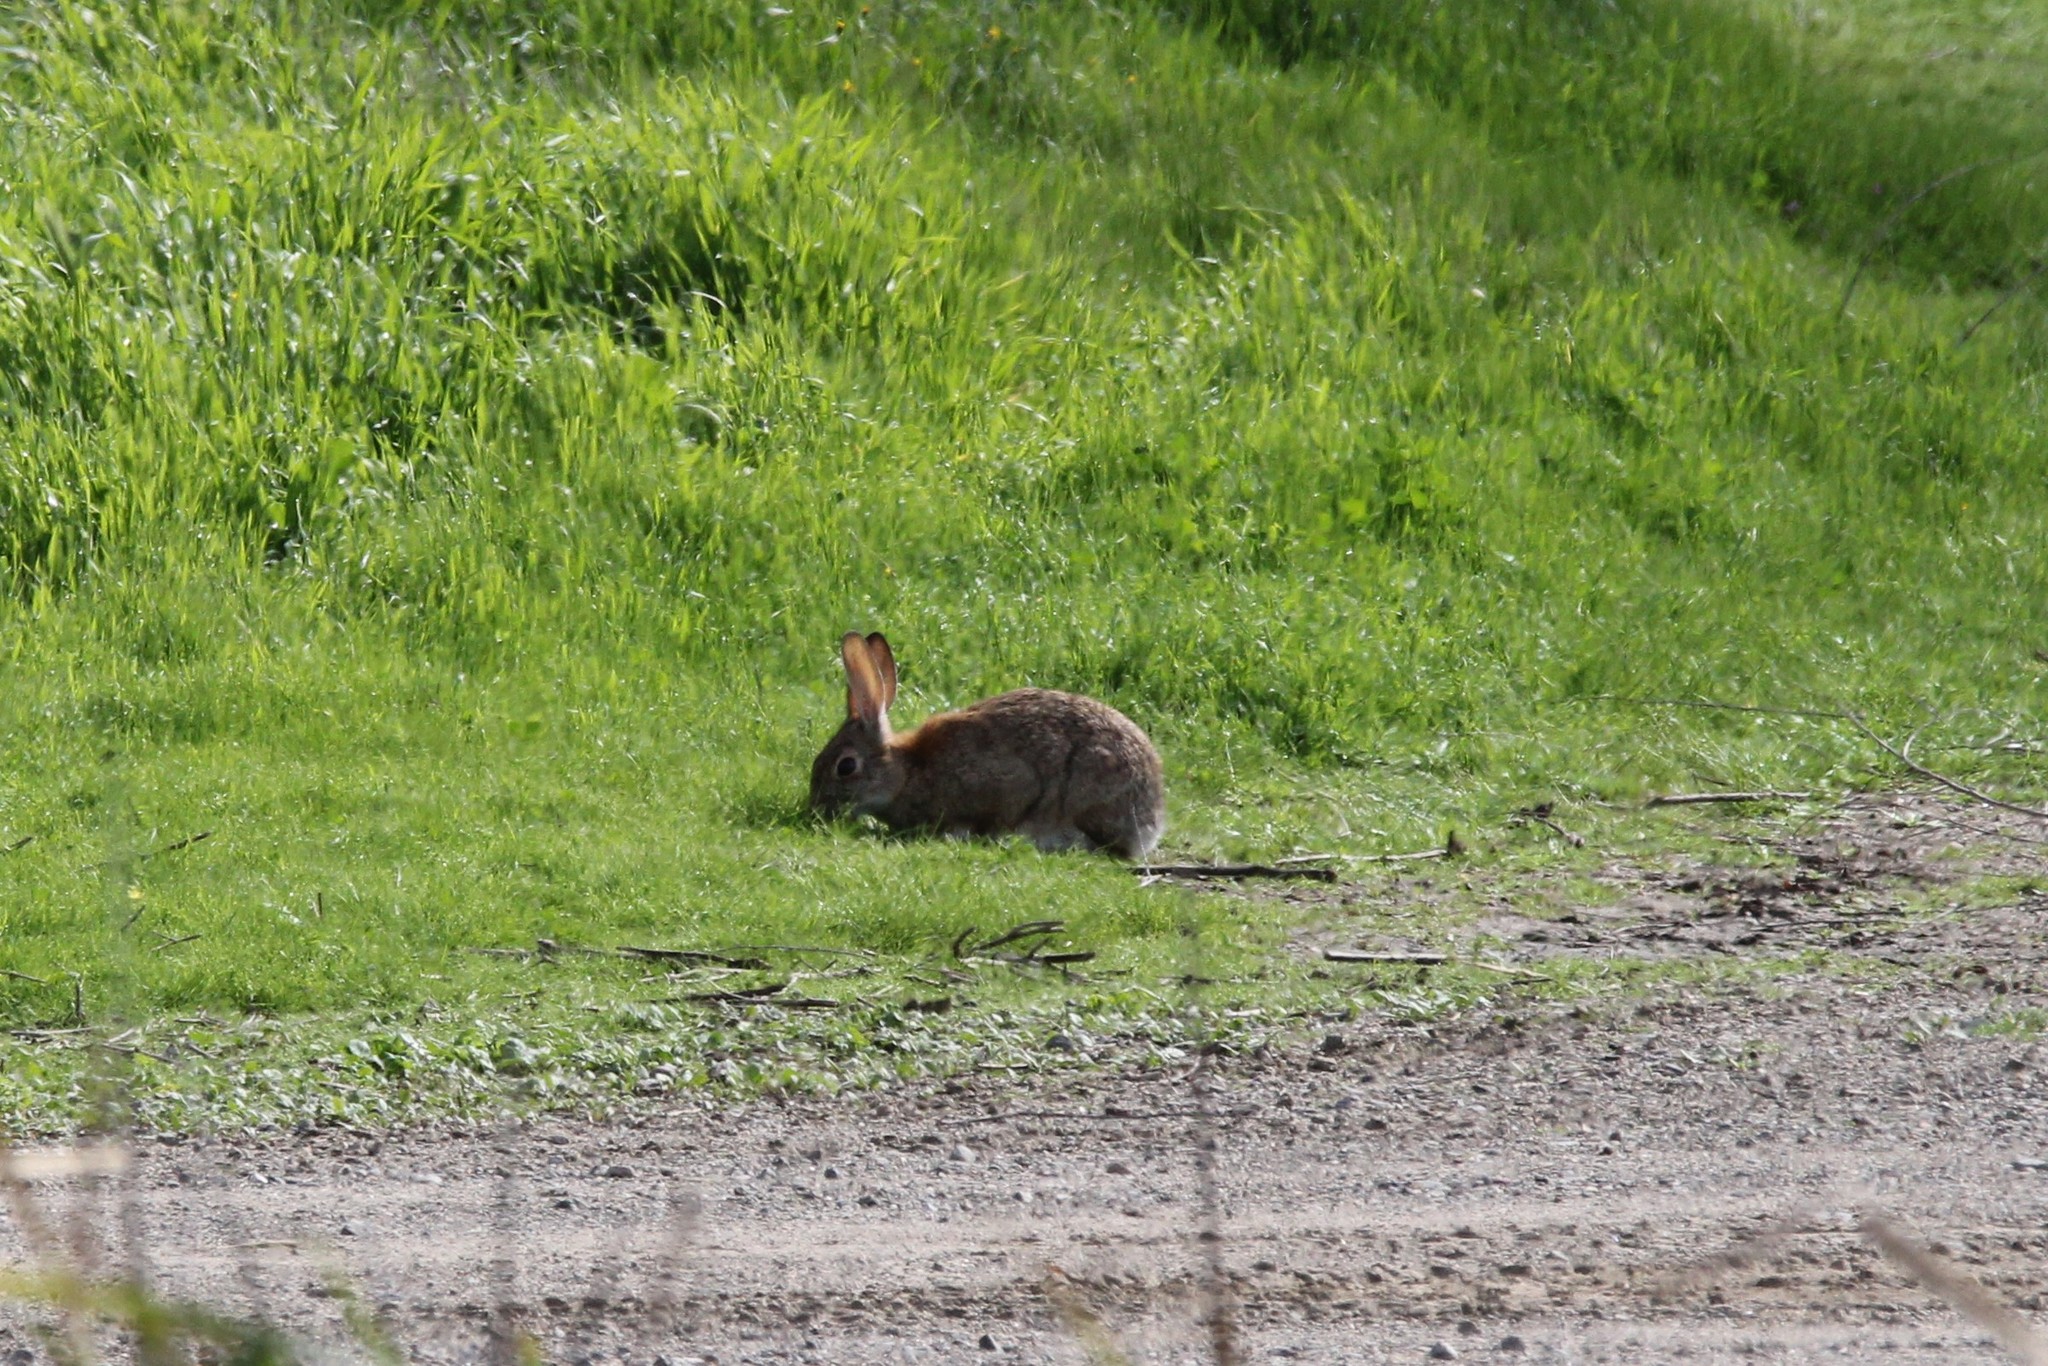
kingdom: Animalia
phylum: Chordata
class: Mammalia
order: Lagomorpha
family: Leporidae
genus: Sylvilagus
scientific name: Sylvilagus audubonii
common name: Desert cottontail
